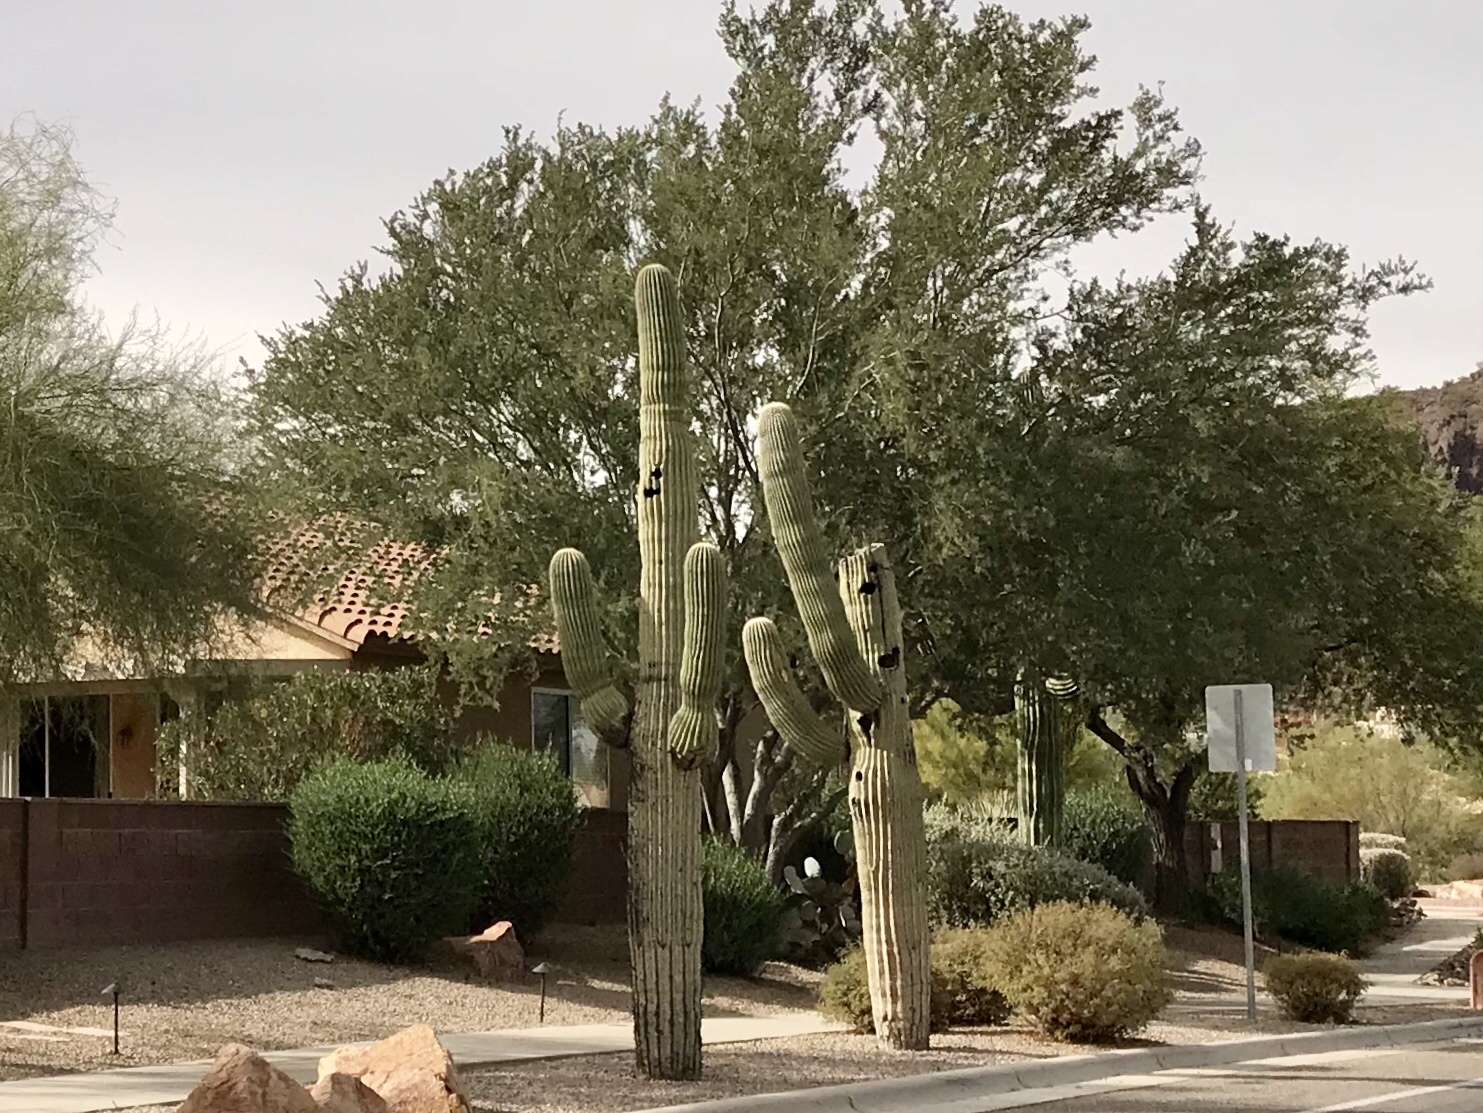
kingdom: Plantae
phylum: Tracheophyta
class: Magnoliopsida
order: Caryophyllales
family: Cactaceae
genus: Carnegiea
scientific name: Carnegiea gigantea
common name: Saguaro
